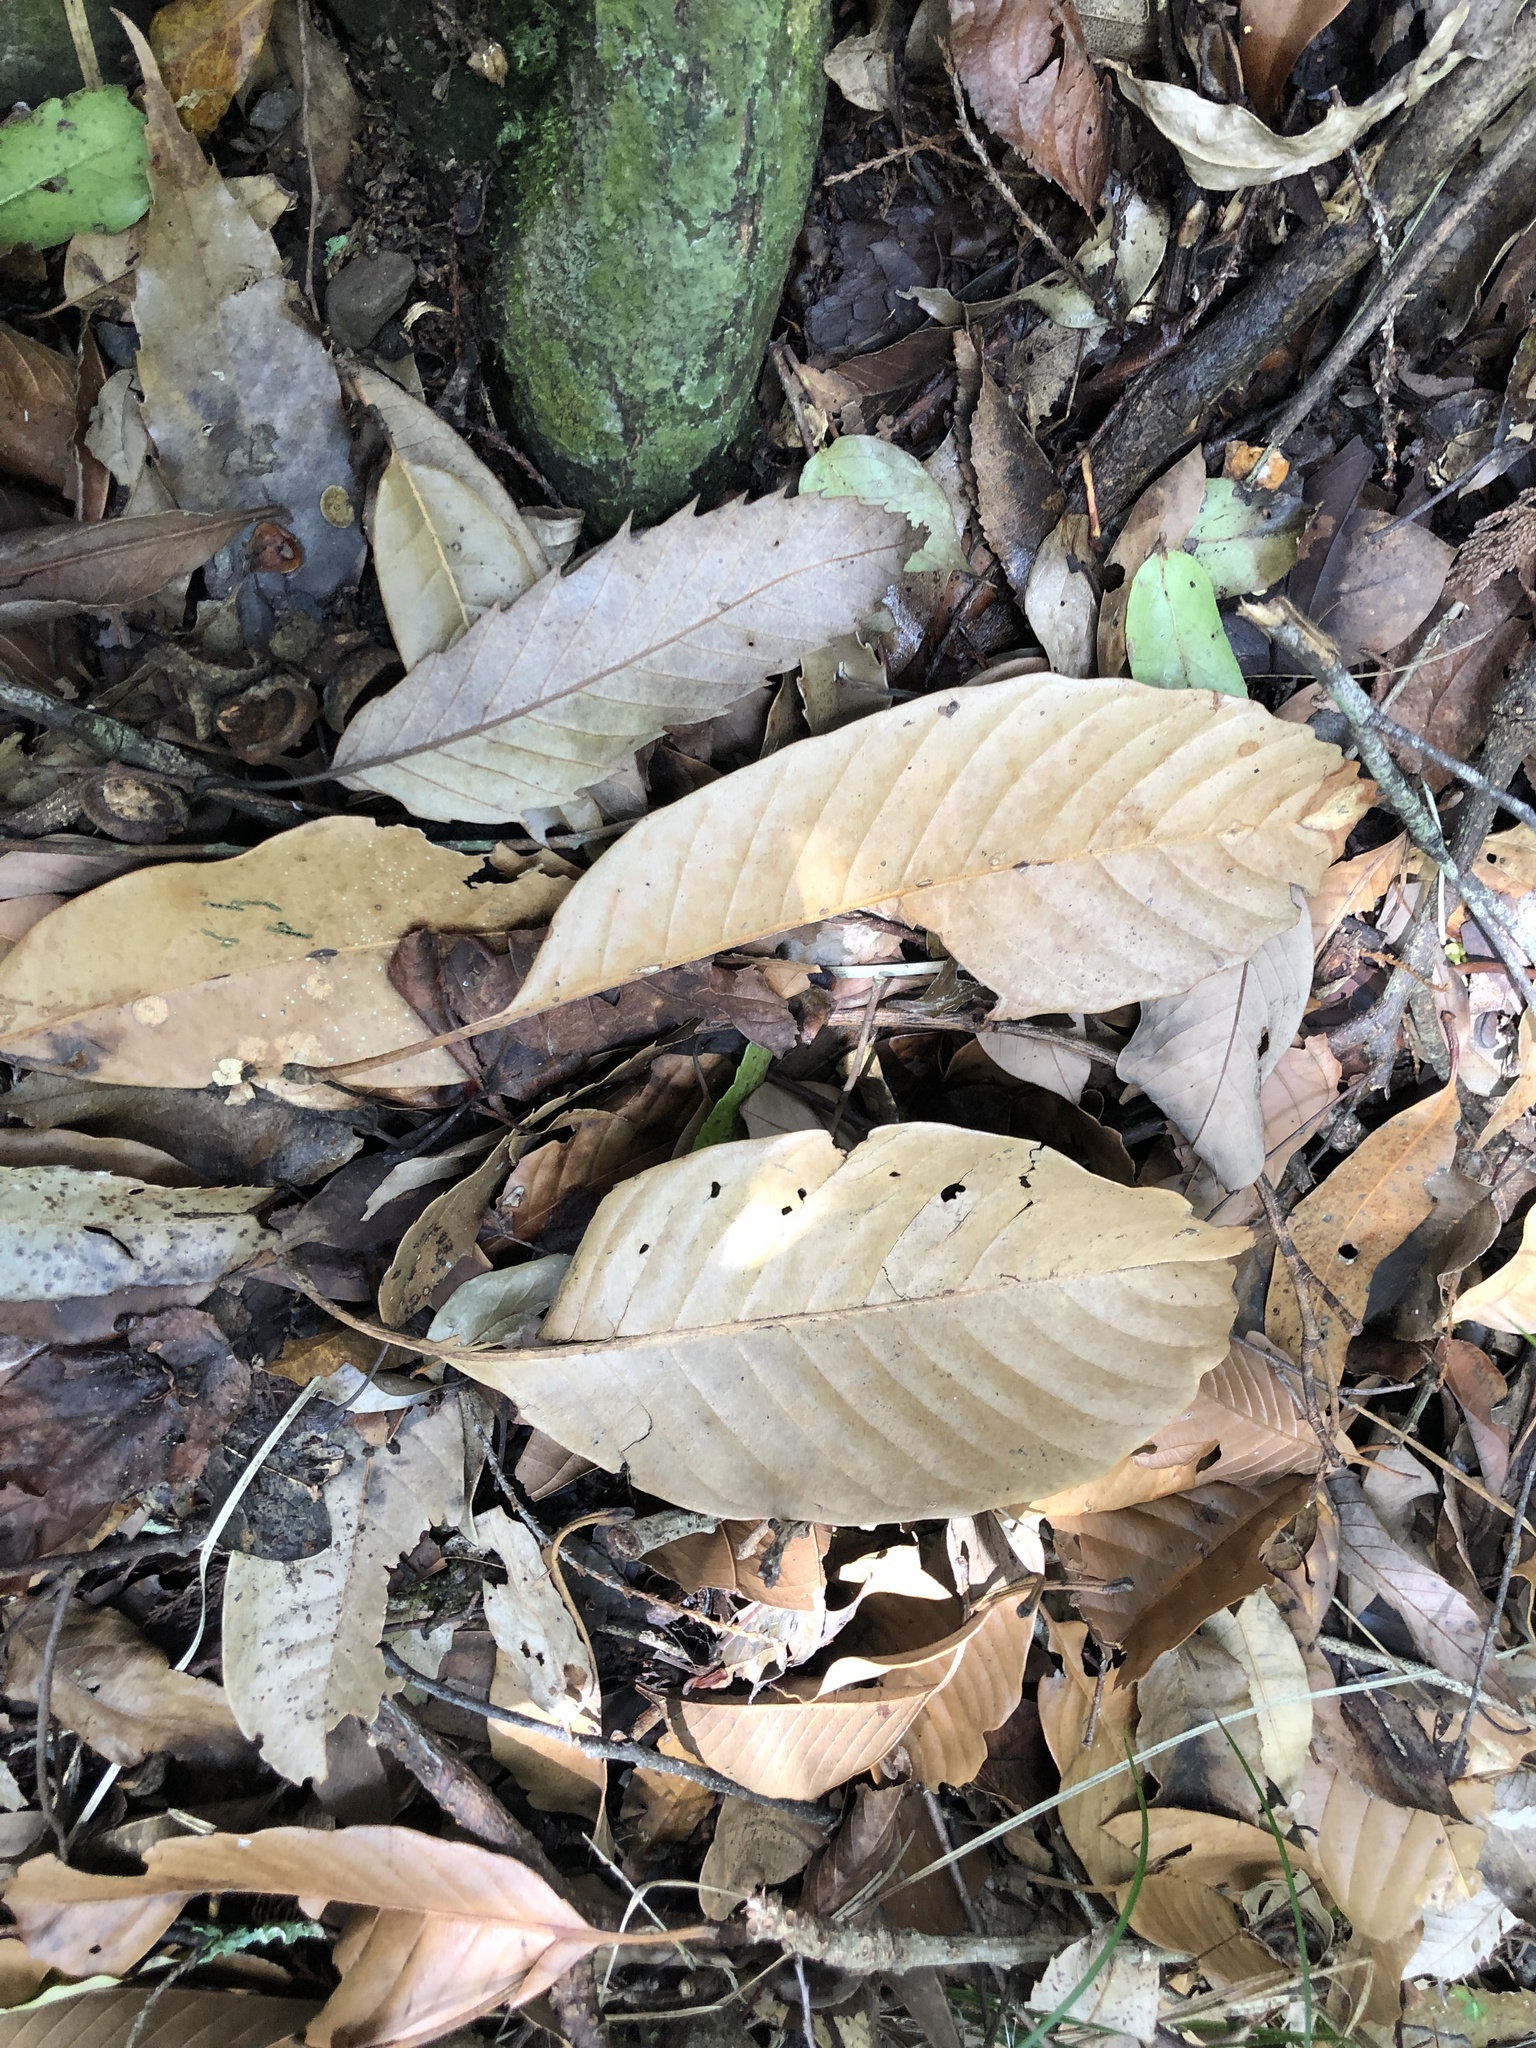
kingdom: Plantae
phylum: Tracheophyta
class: Magnoliopsida
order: Fagales
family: Fagaceae
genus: Lithocarpus
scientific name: Lithocarpus kawakamii
